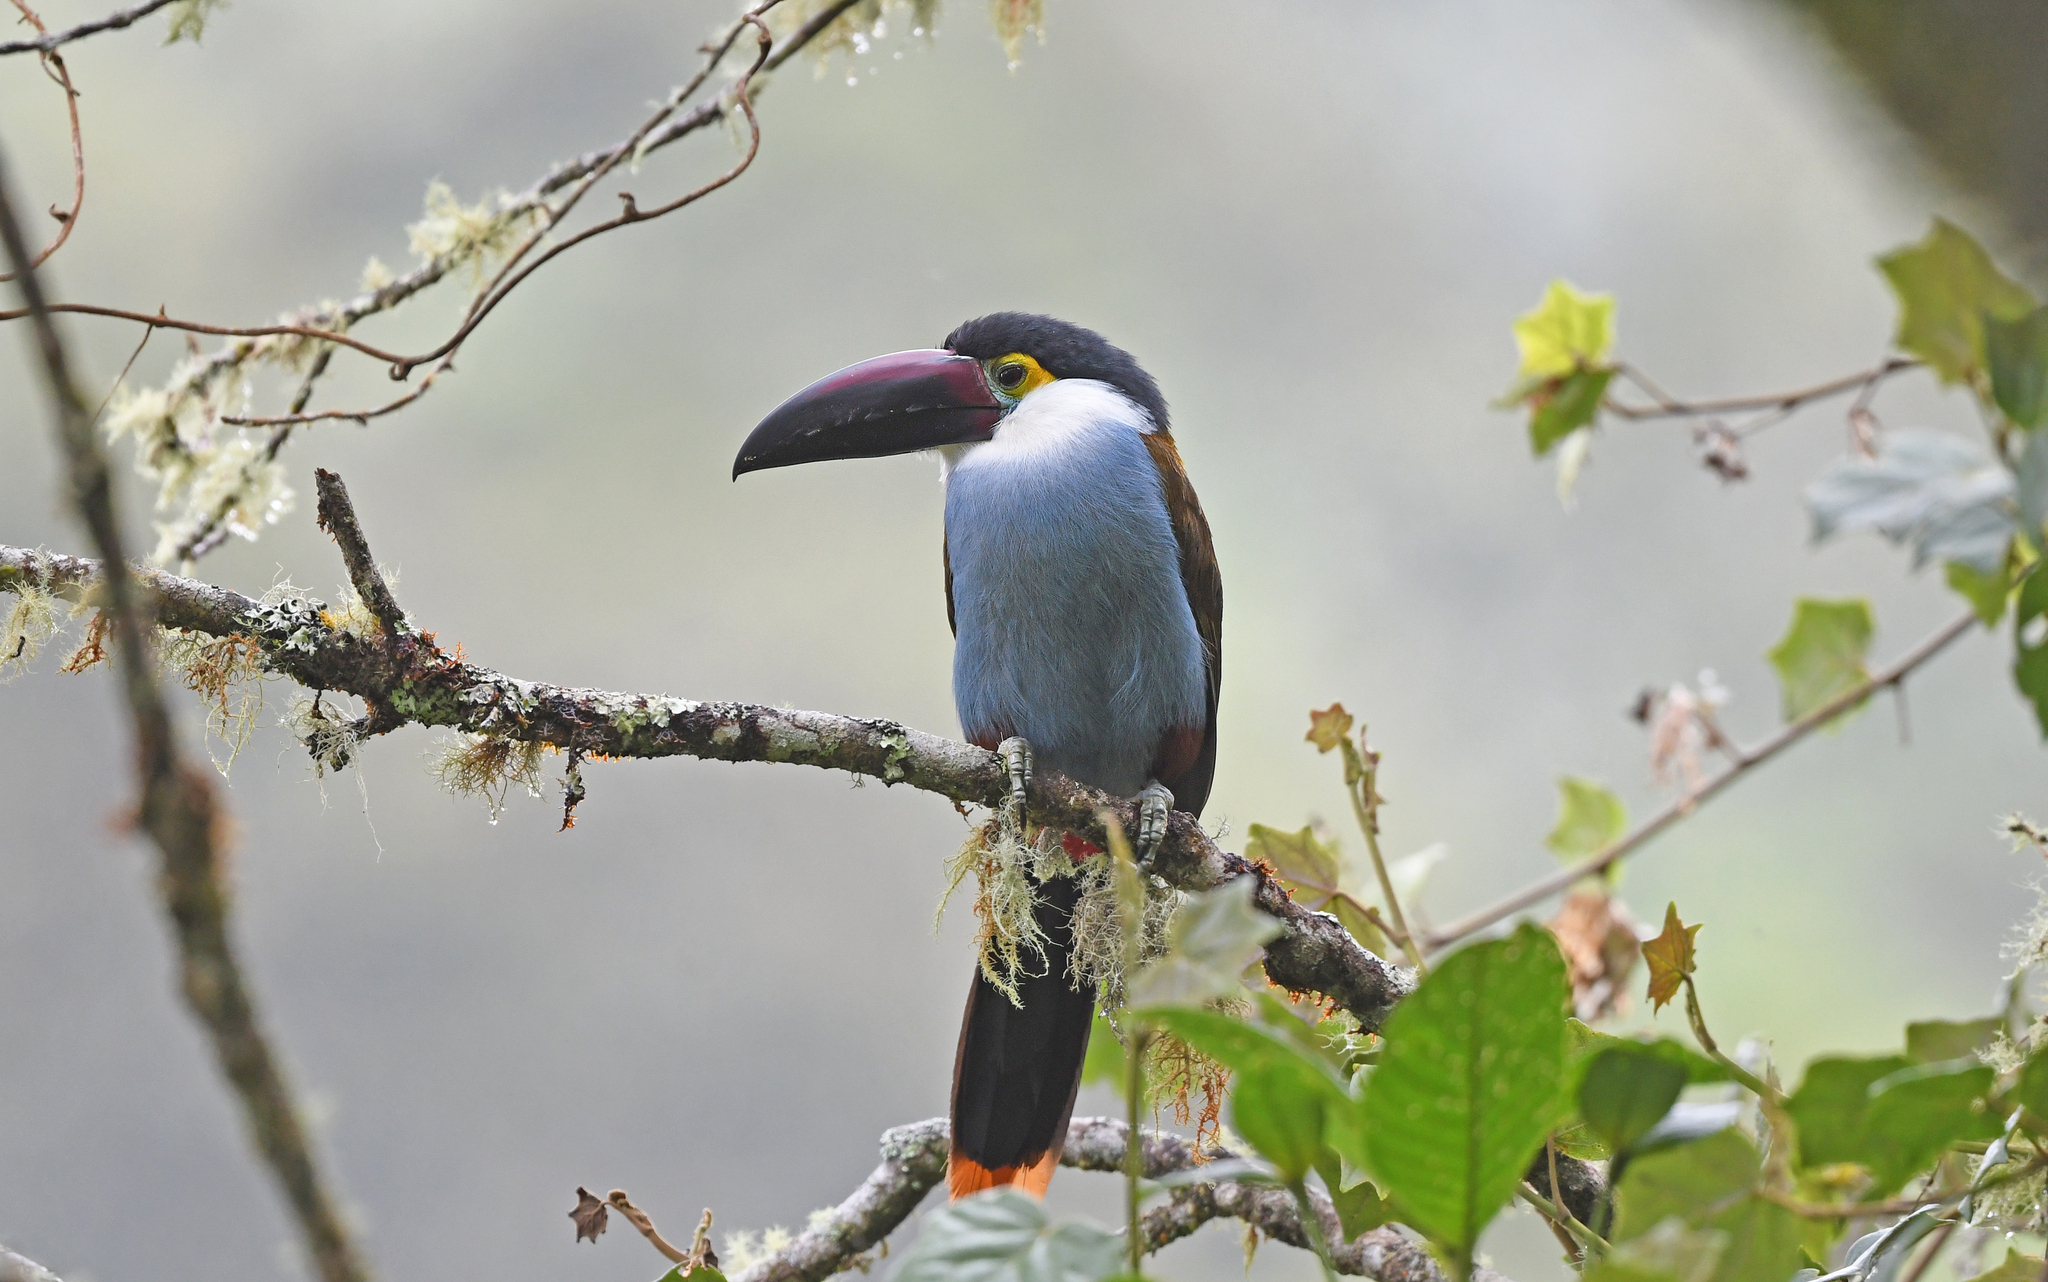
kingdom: Animalia
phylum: Chordata
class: Aves
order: Piciformes
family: Ramphastidae
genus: Andigena
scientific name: Andigena nigrirostris
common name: Black-billed mountain toucan
